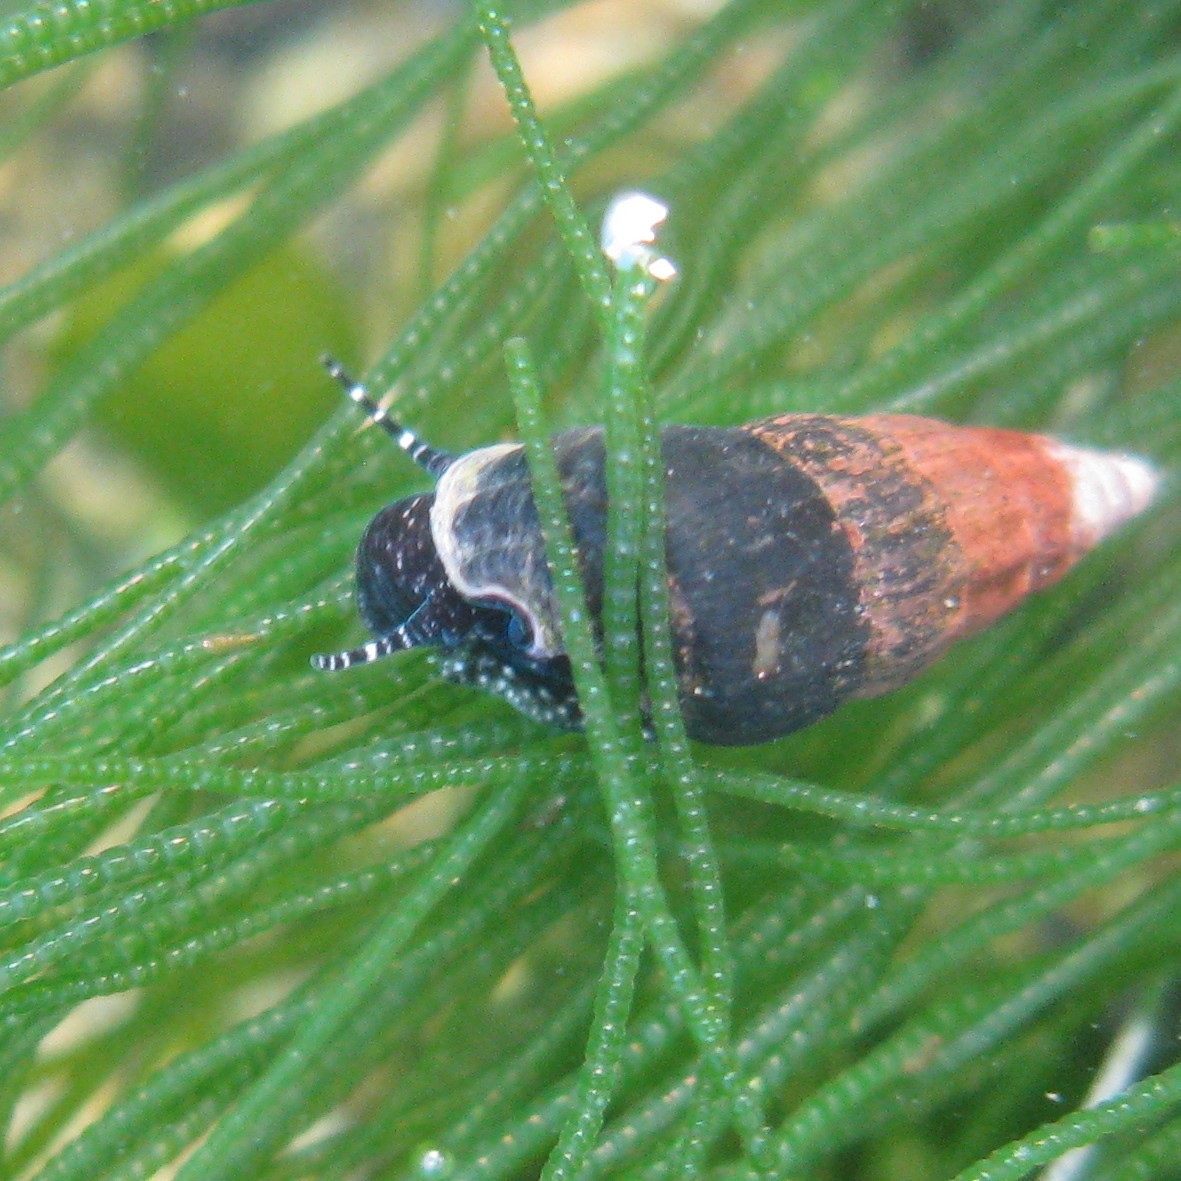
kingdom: Animalia
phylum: Mollusca
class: Gastropoda
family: Batillariidae
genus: Zeacumantus
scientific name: Zeacumantus subcarinatus
